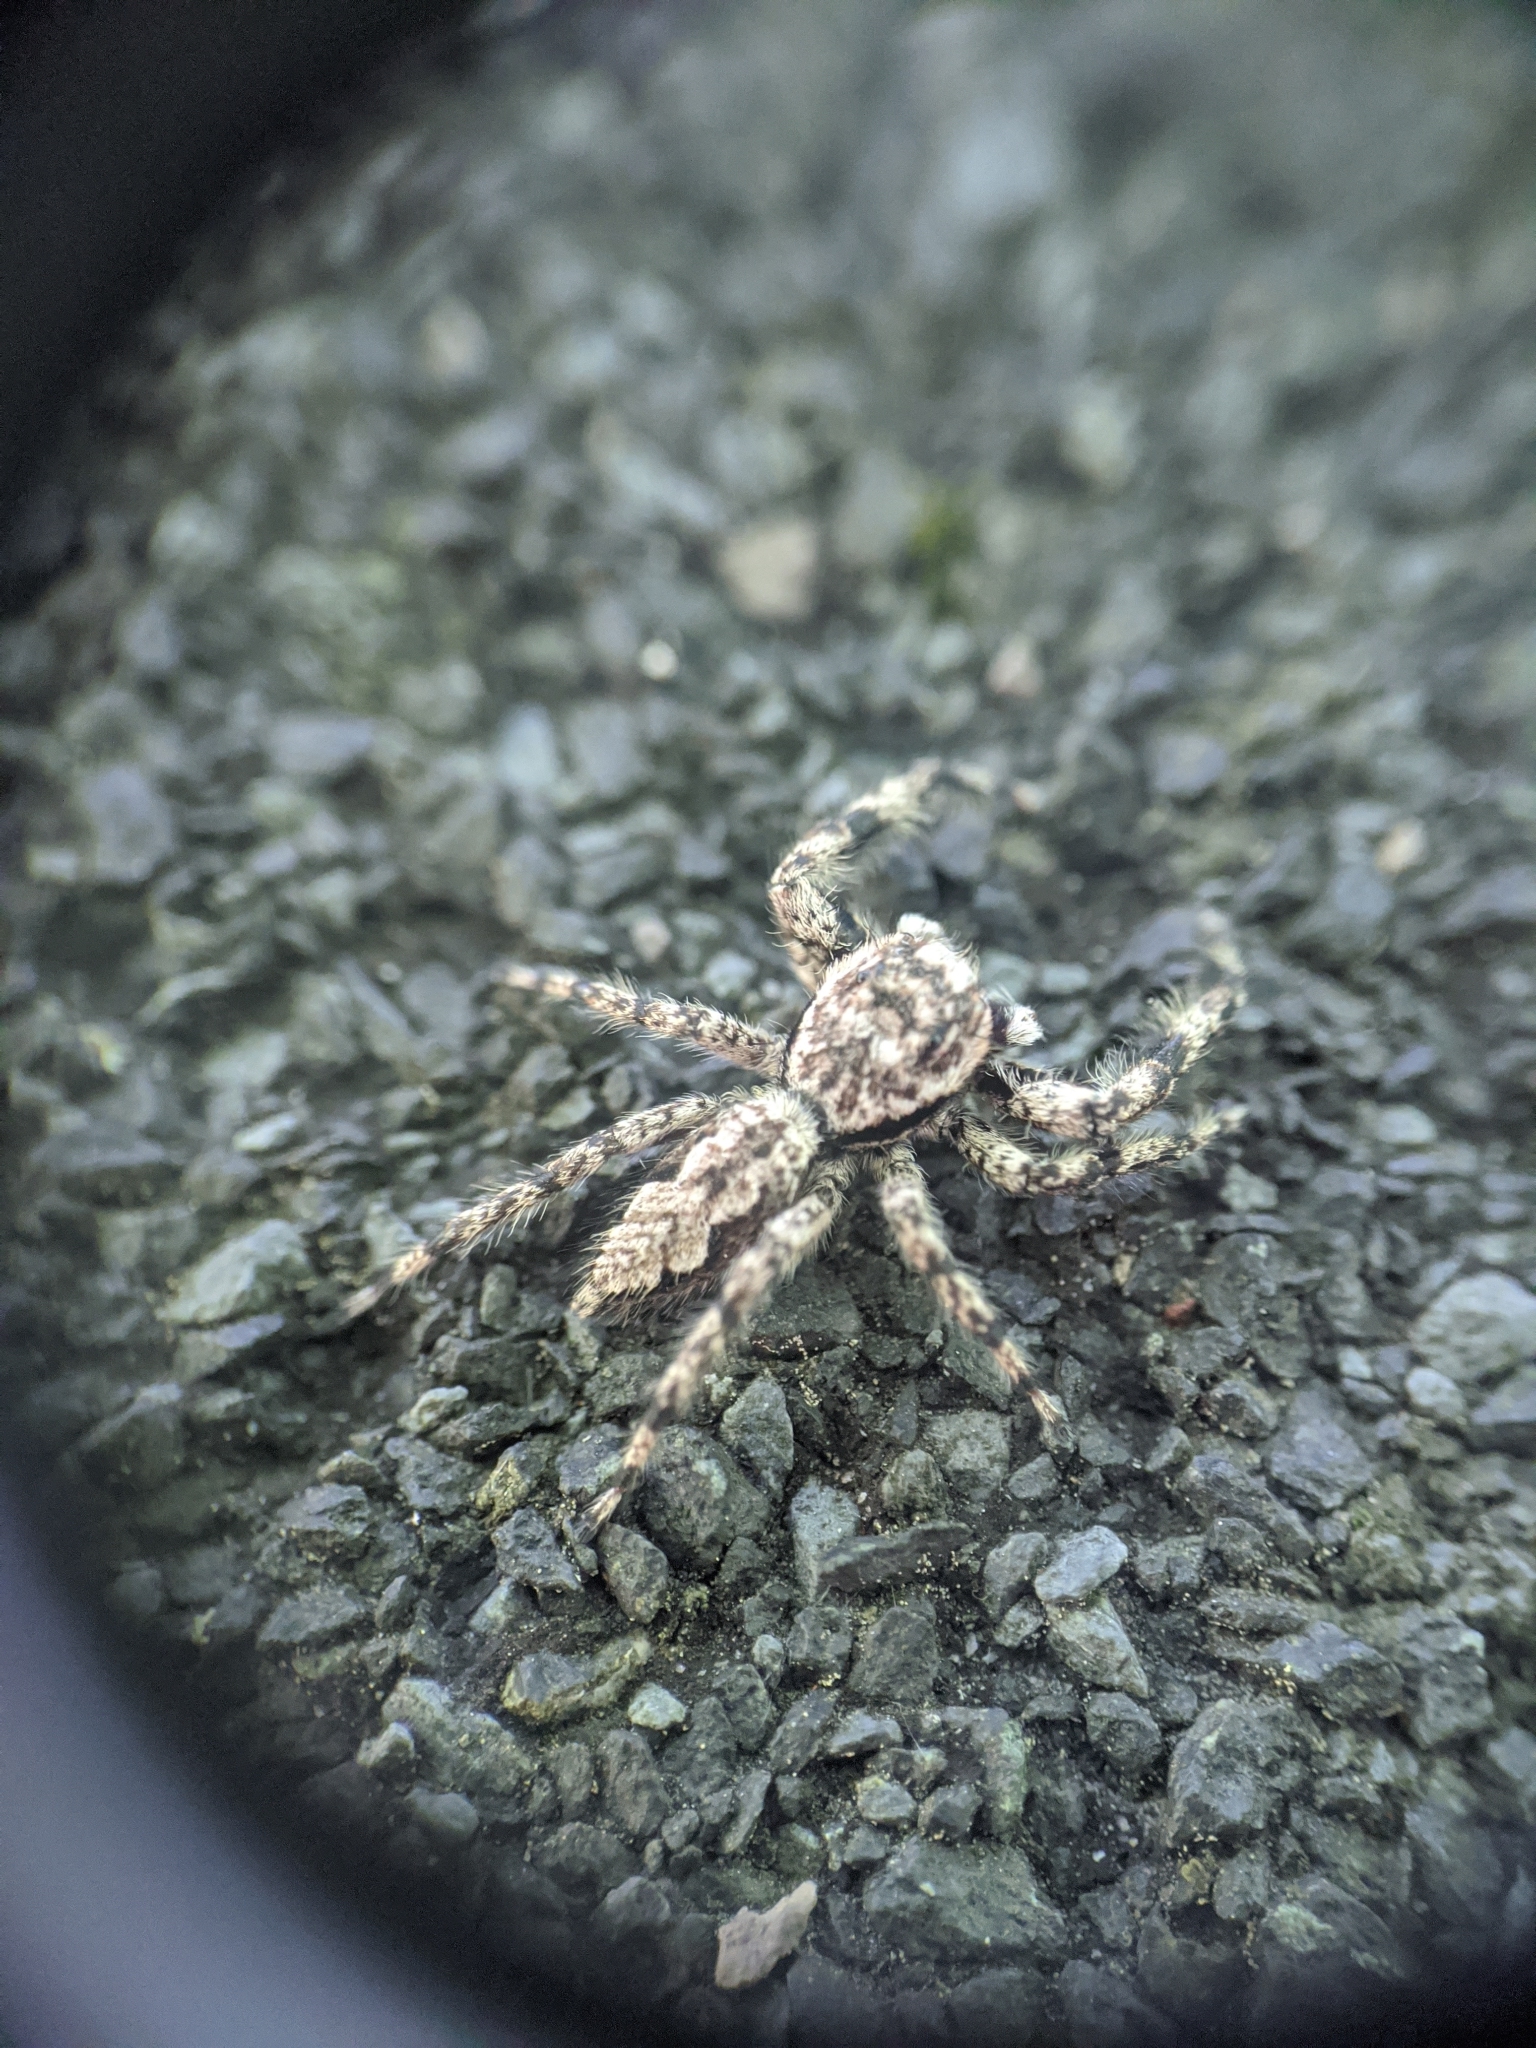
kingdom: Animalia
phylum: Arthropoda
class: Arachnida
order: Araneae
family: Salticidae
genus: Platycryptus
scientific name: Platycryptus undatus
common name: Tan jumping spider
